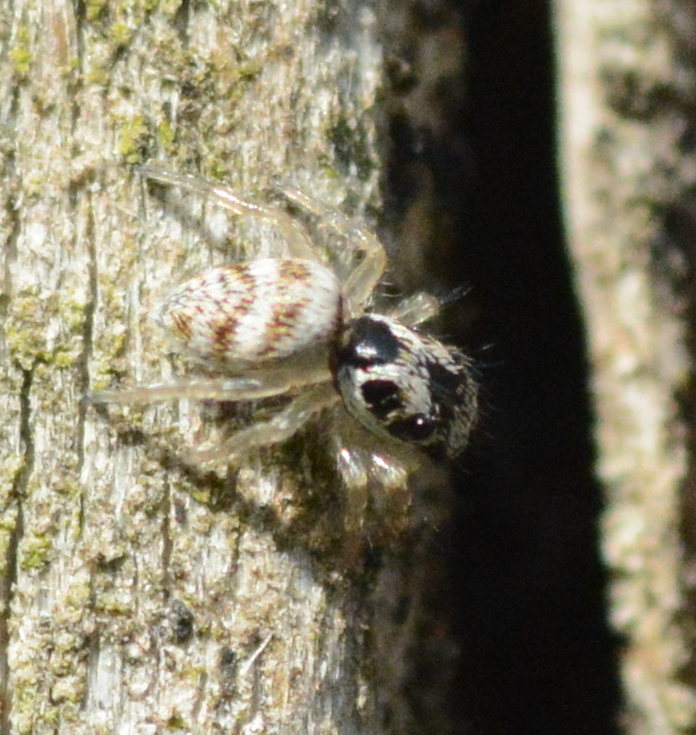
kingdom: Animalia
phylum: Arthropoda
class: Arachnida
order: Araneae
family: Salticidae
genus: Salticus
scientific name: Salticus scenicus
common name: Zebra jumper
